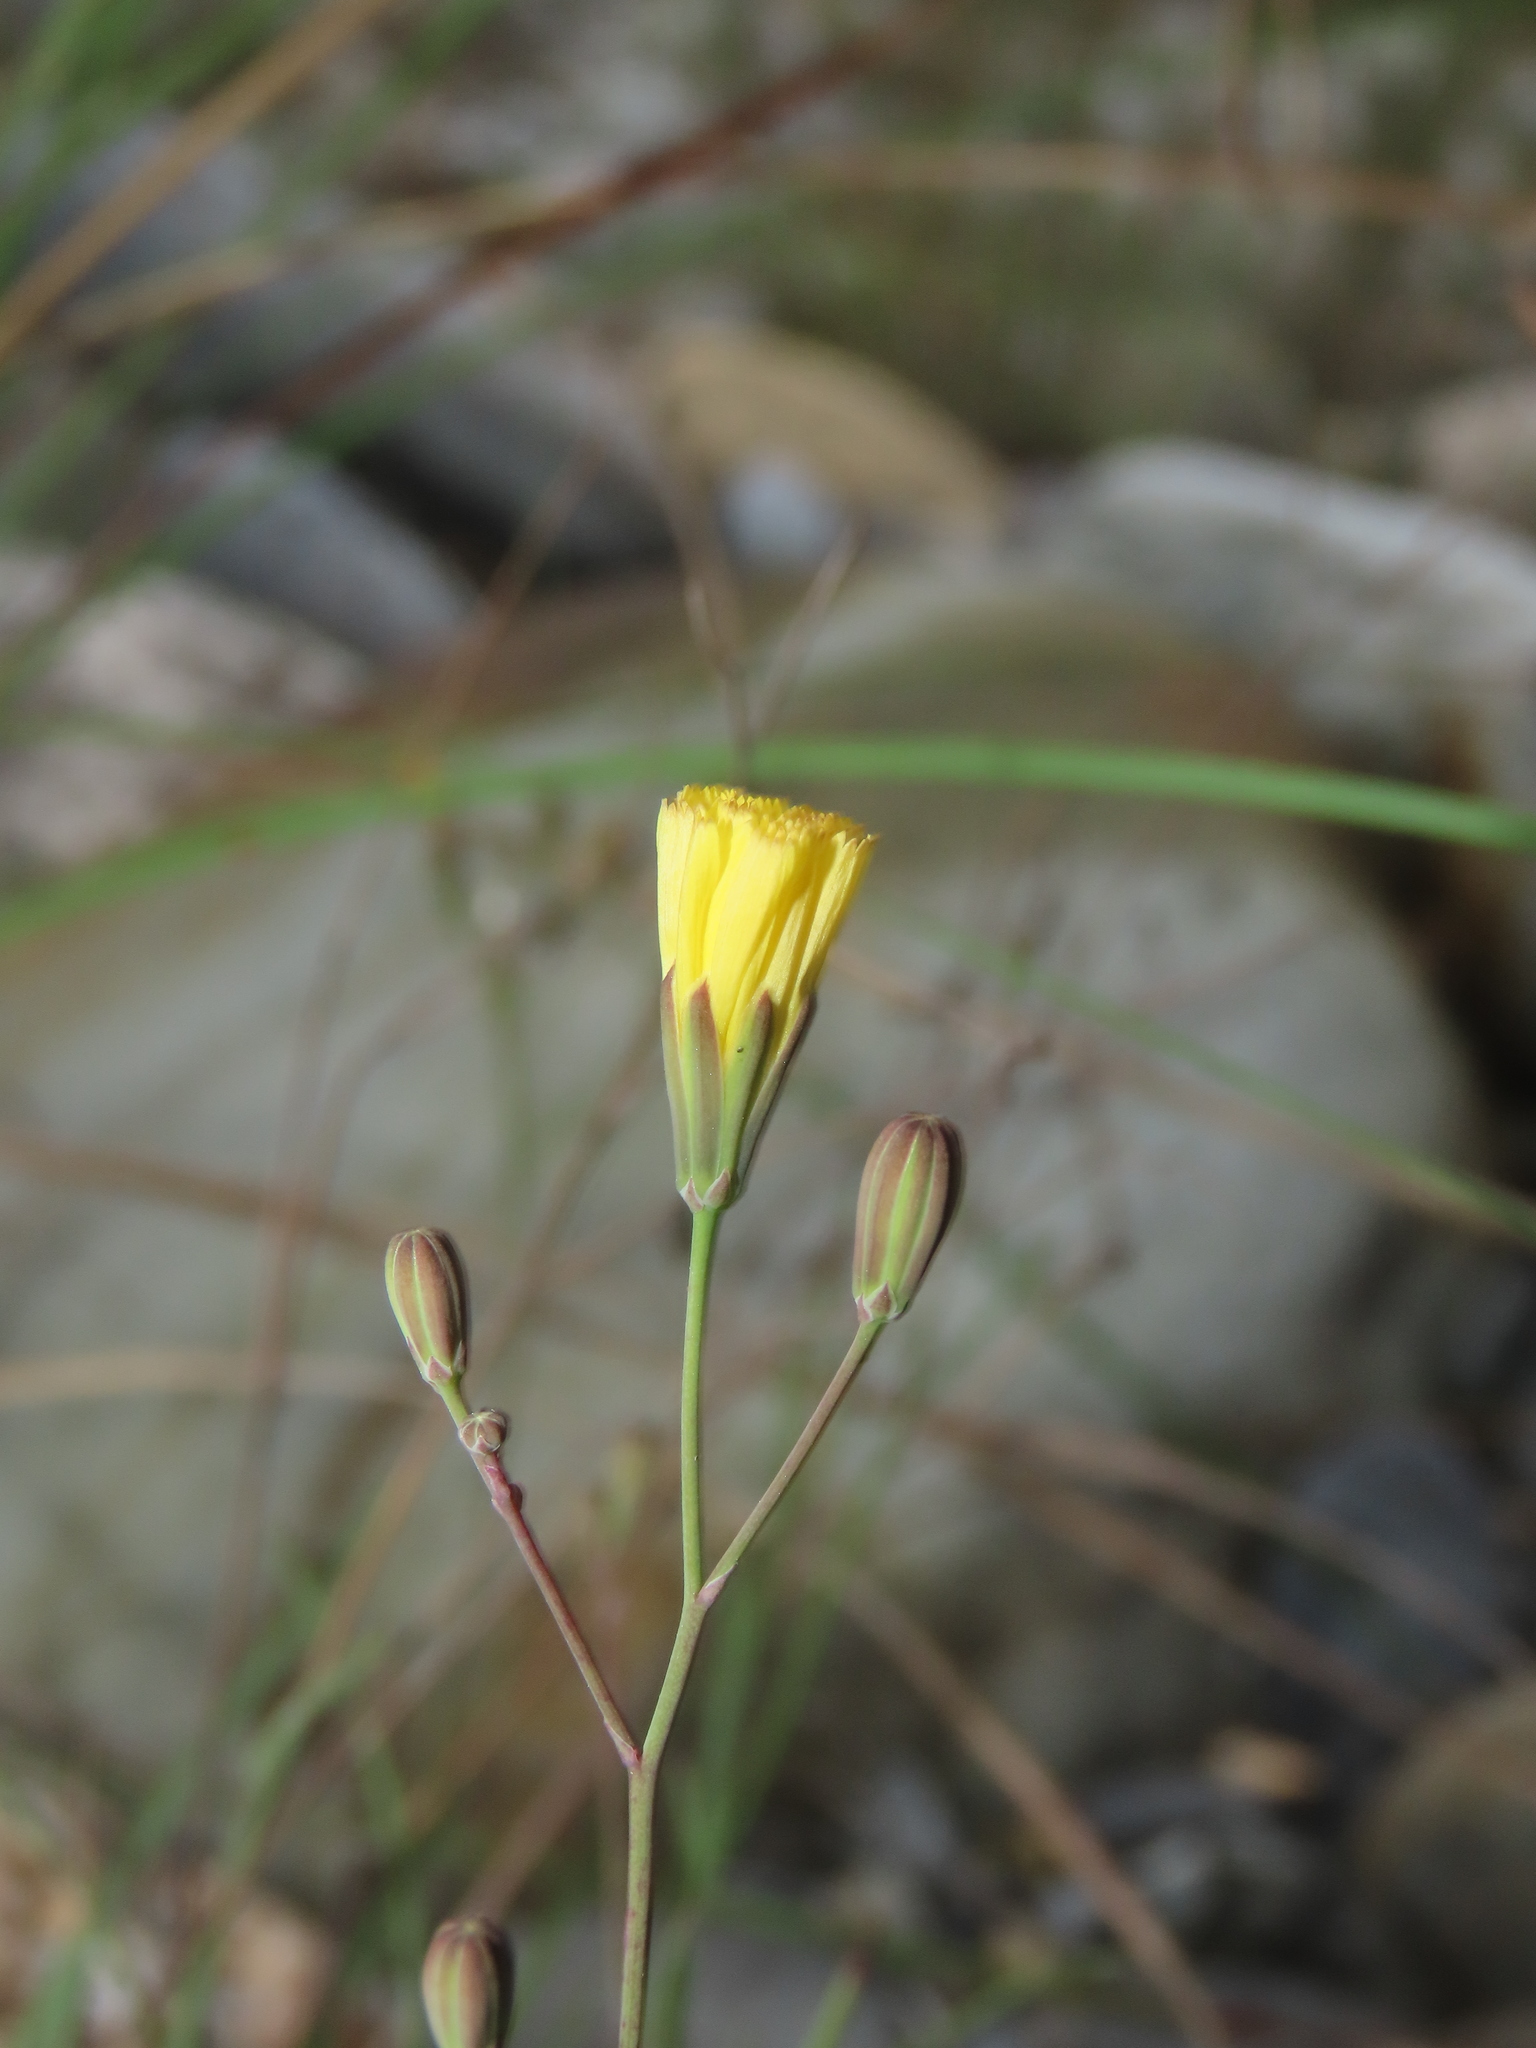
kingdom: Plantae
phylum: Tracheophyta
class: Magnoliopsida
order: Asterales
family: Asteraceae
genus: Ixeris
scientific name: Ixeris tamagawaensis
